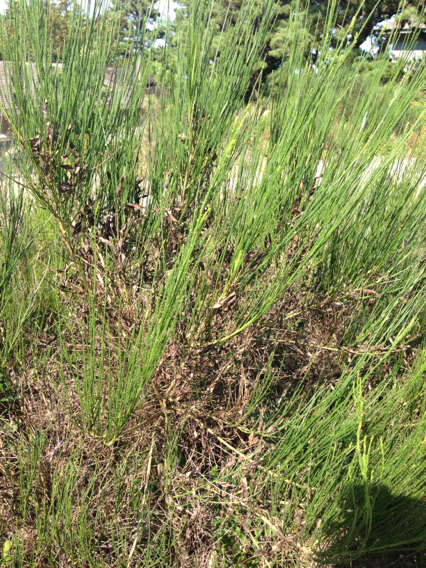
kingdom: Plantae
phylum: Tracheophyta
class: Magnoliopsida
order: Fabales
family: Fabaceae
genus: Cytisus
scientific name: Cytisus scoparius
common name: Scotch broom
